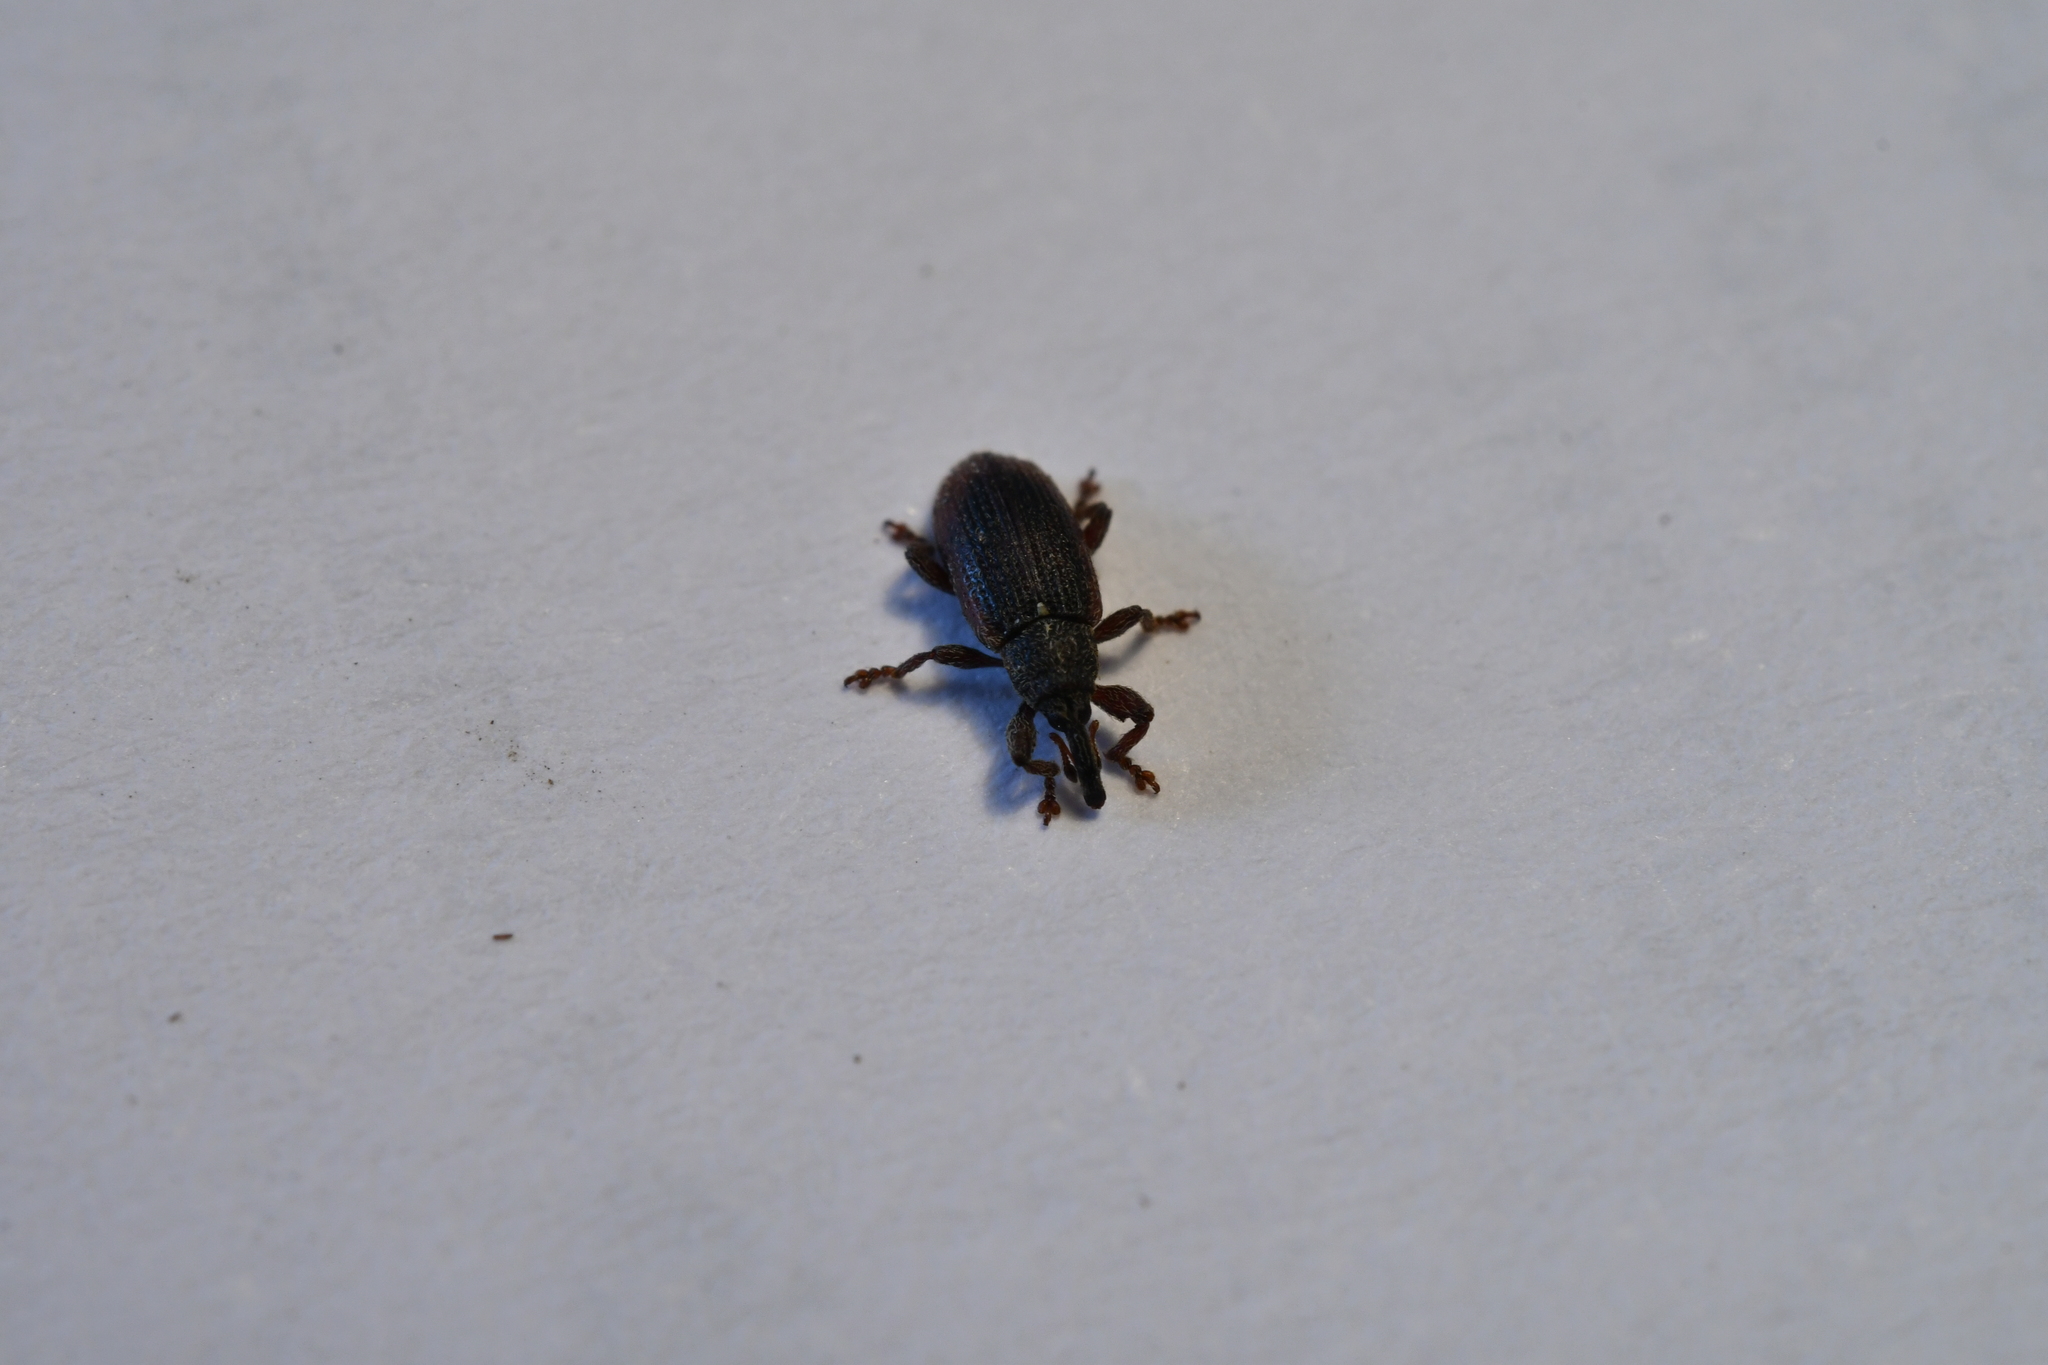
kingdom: Animalia
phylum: Arthropoda
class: Insecta
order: Coleoptera
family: Curculionidae
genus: Bradybatus
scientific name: Bradybatus kellneri
